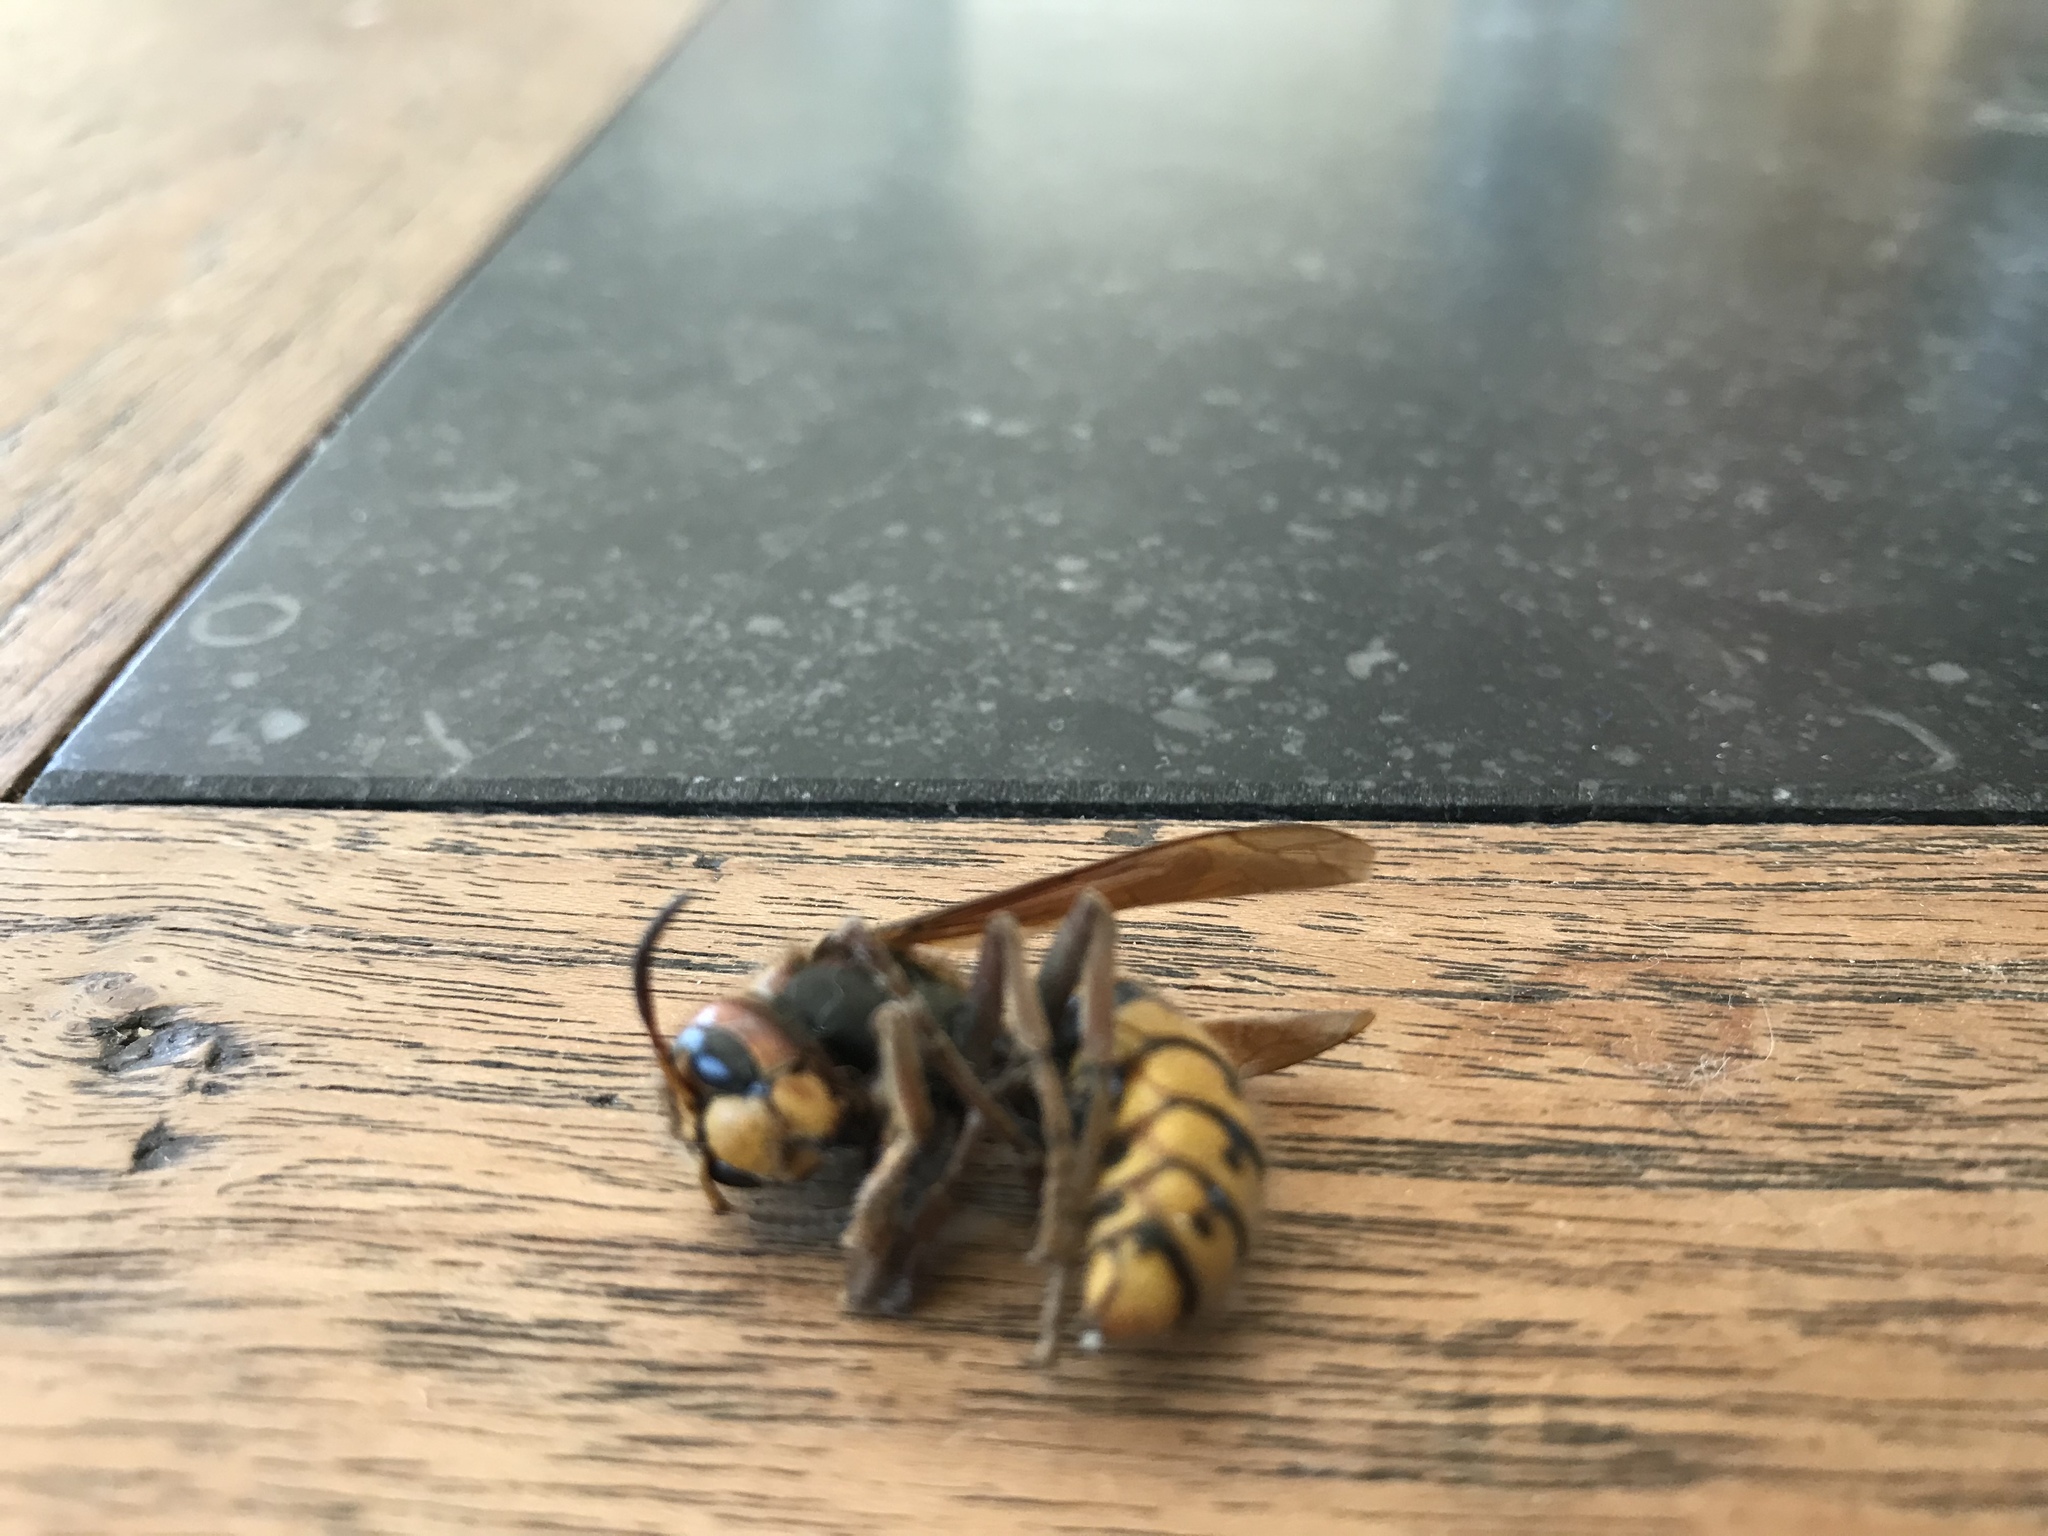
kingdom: Animalia
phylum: Arthropoda
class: Insecta
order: Hymenoptera
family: Vespidae
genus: Vespa
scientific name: Vespa crabro
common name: Hornet
